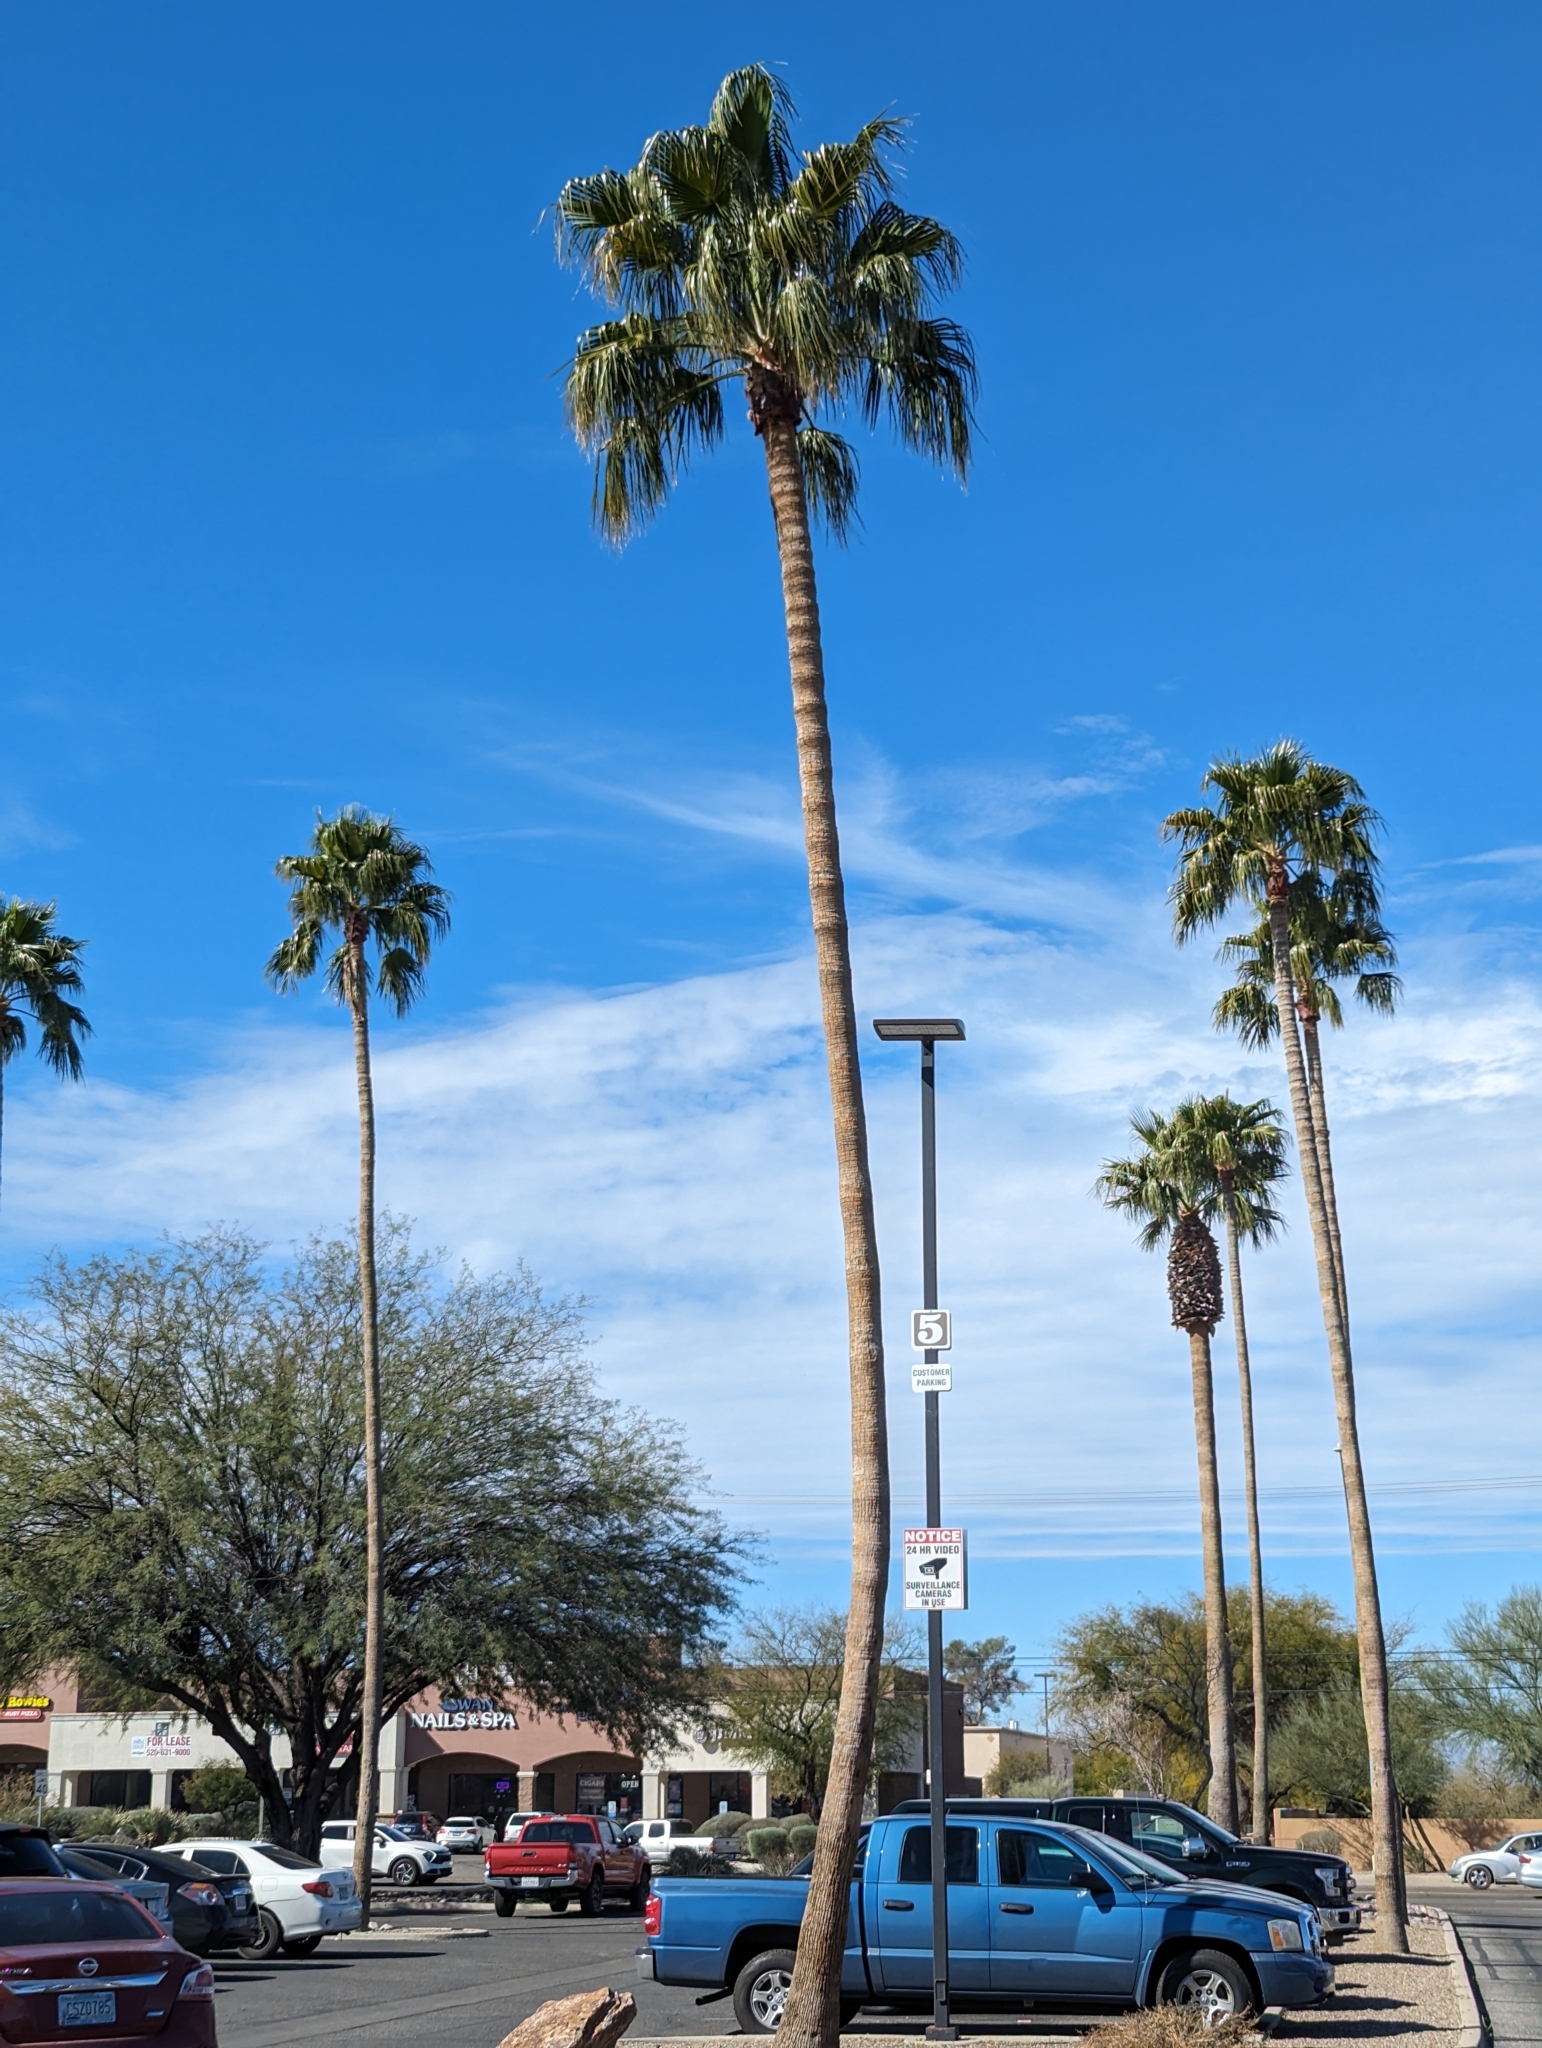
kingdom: Plantae
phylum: Tracheophyta
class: Liliopsida
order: Arecales
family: Arecaceae
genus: Washingtonia
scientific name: Washingtonia robusta
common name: Mexican fan palm
